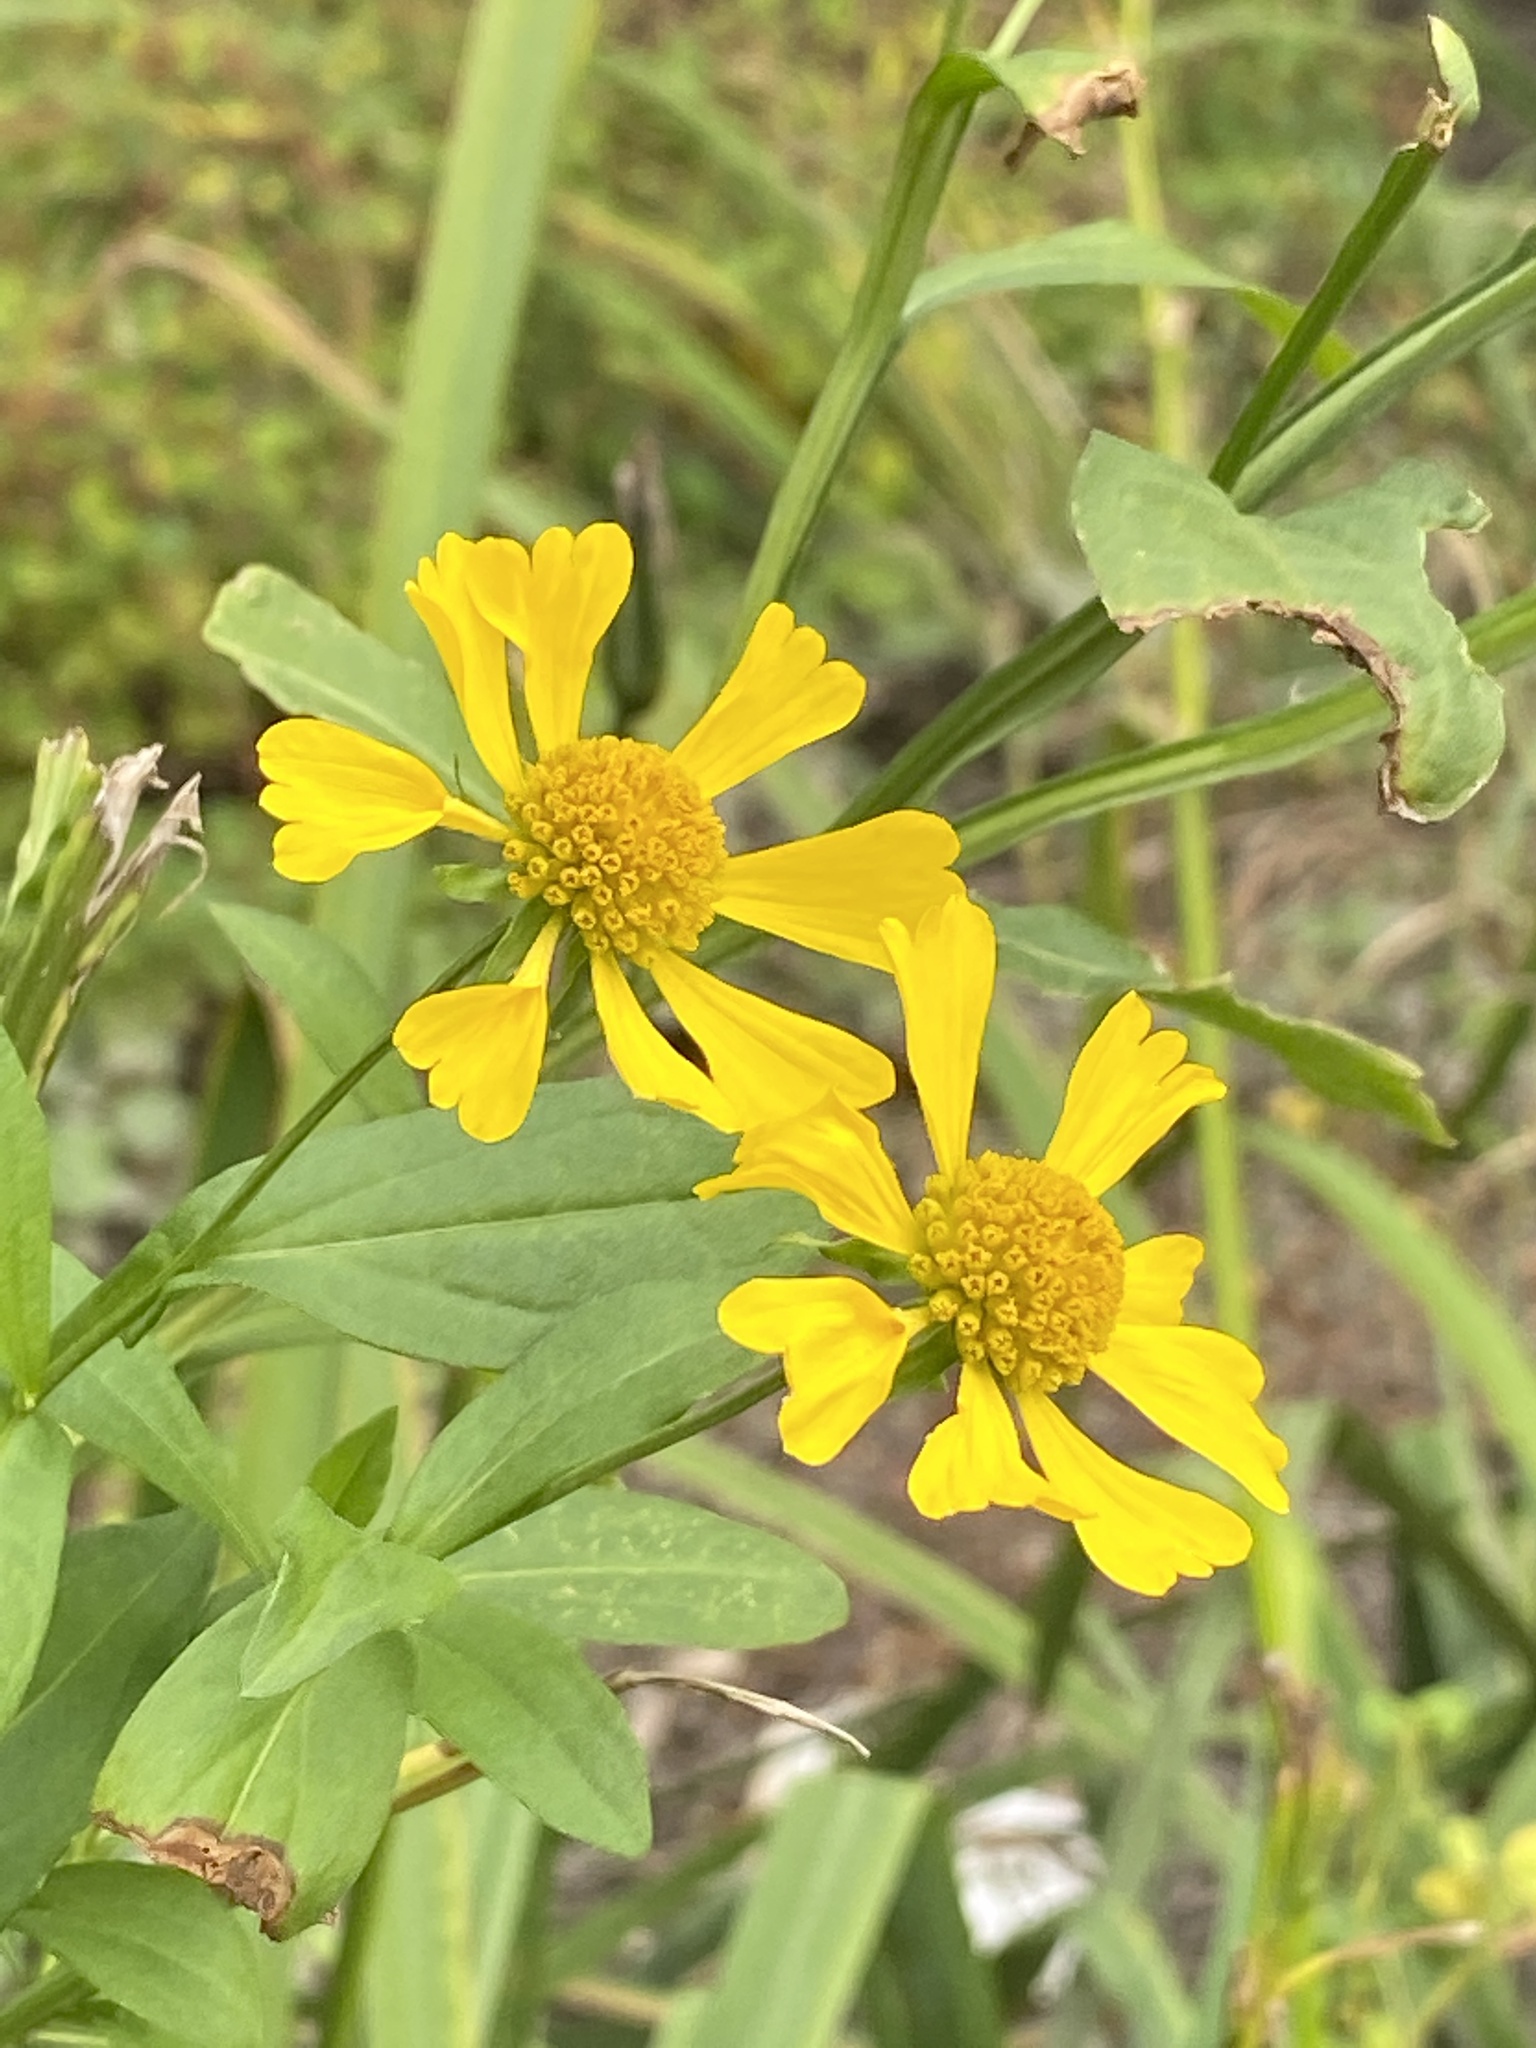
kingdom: Plantae
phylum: Tracheophyta
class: Magnoliopsida
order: Asterales
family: Asteraceae
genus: Helenium
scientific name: Helenium autumnale
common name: Sneezeweed
